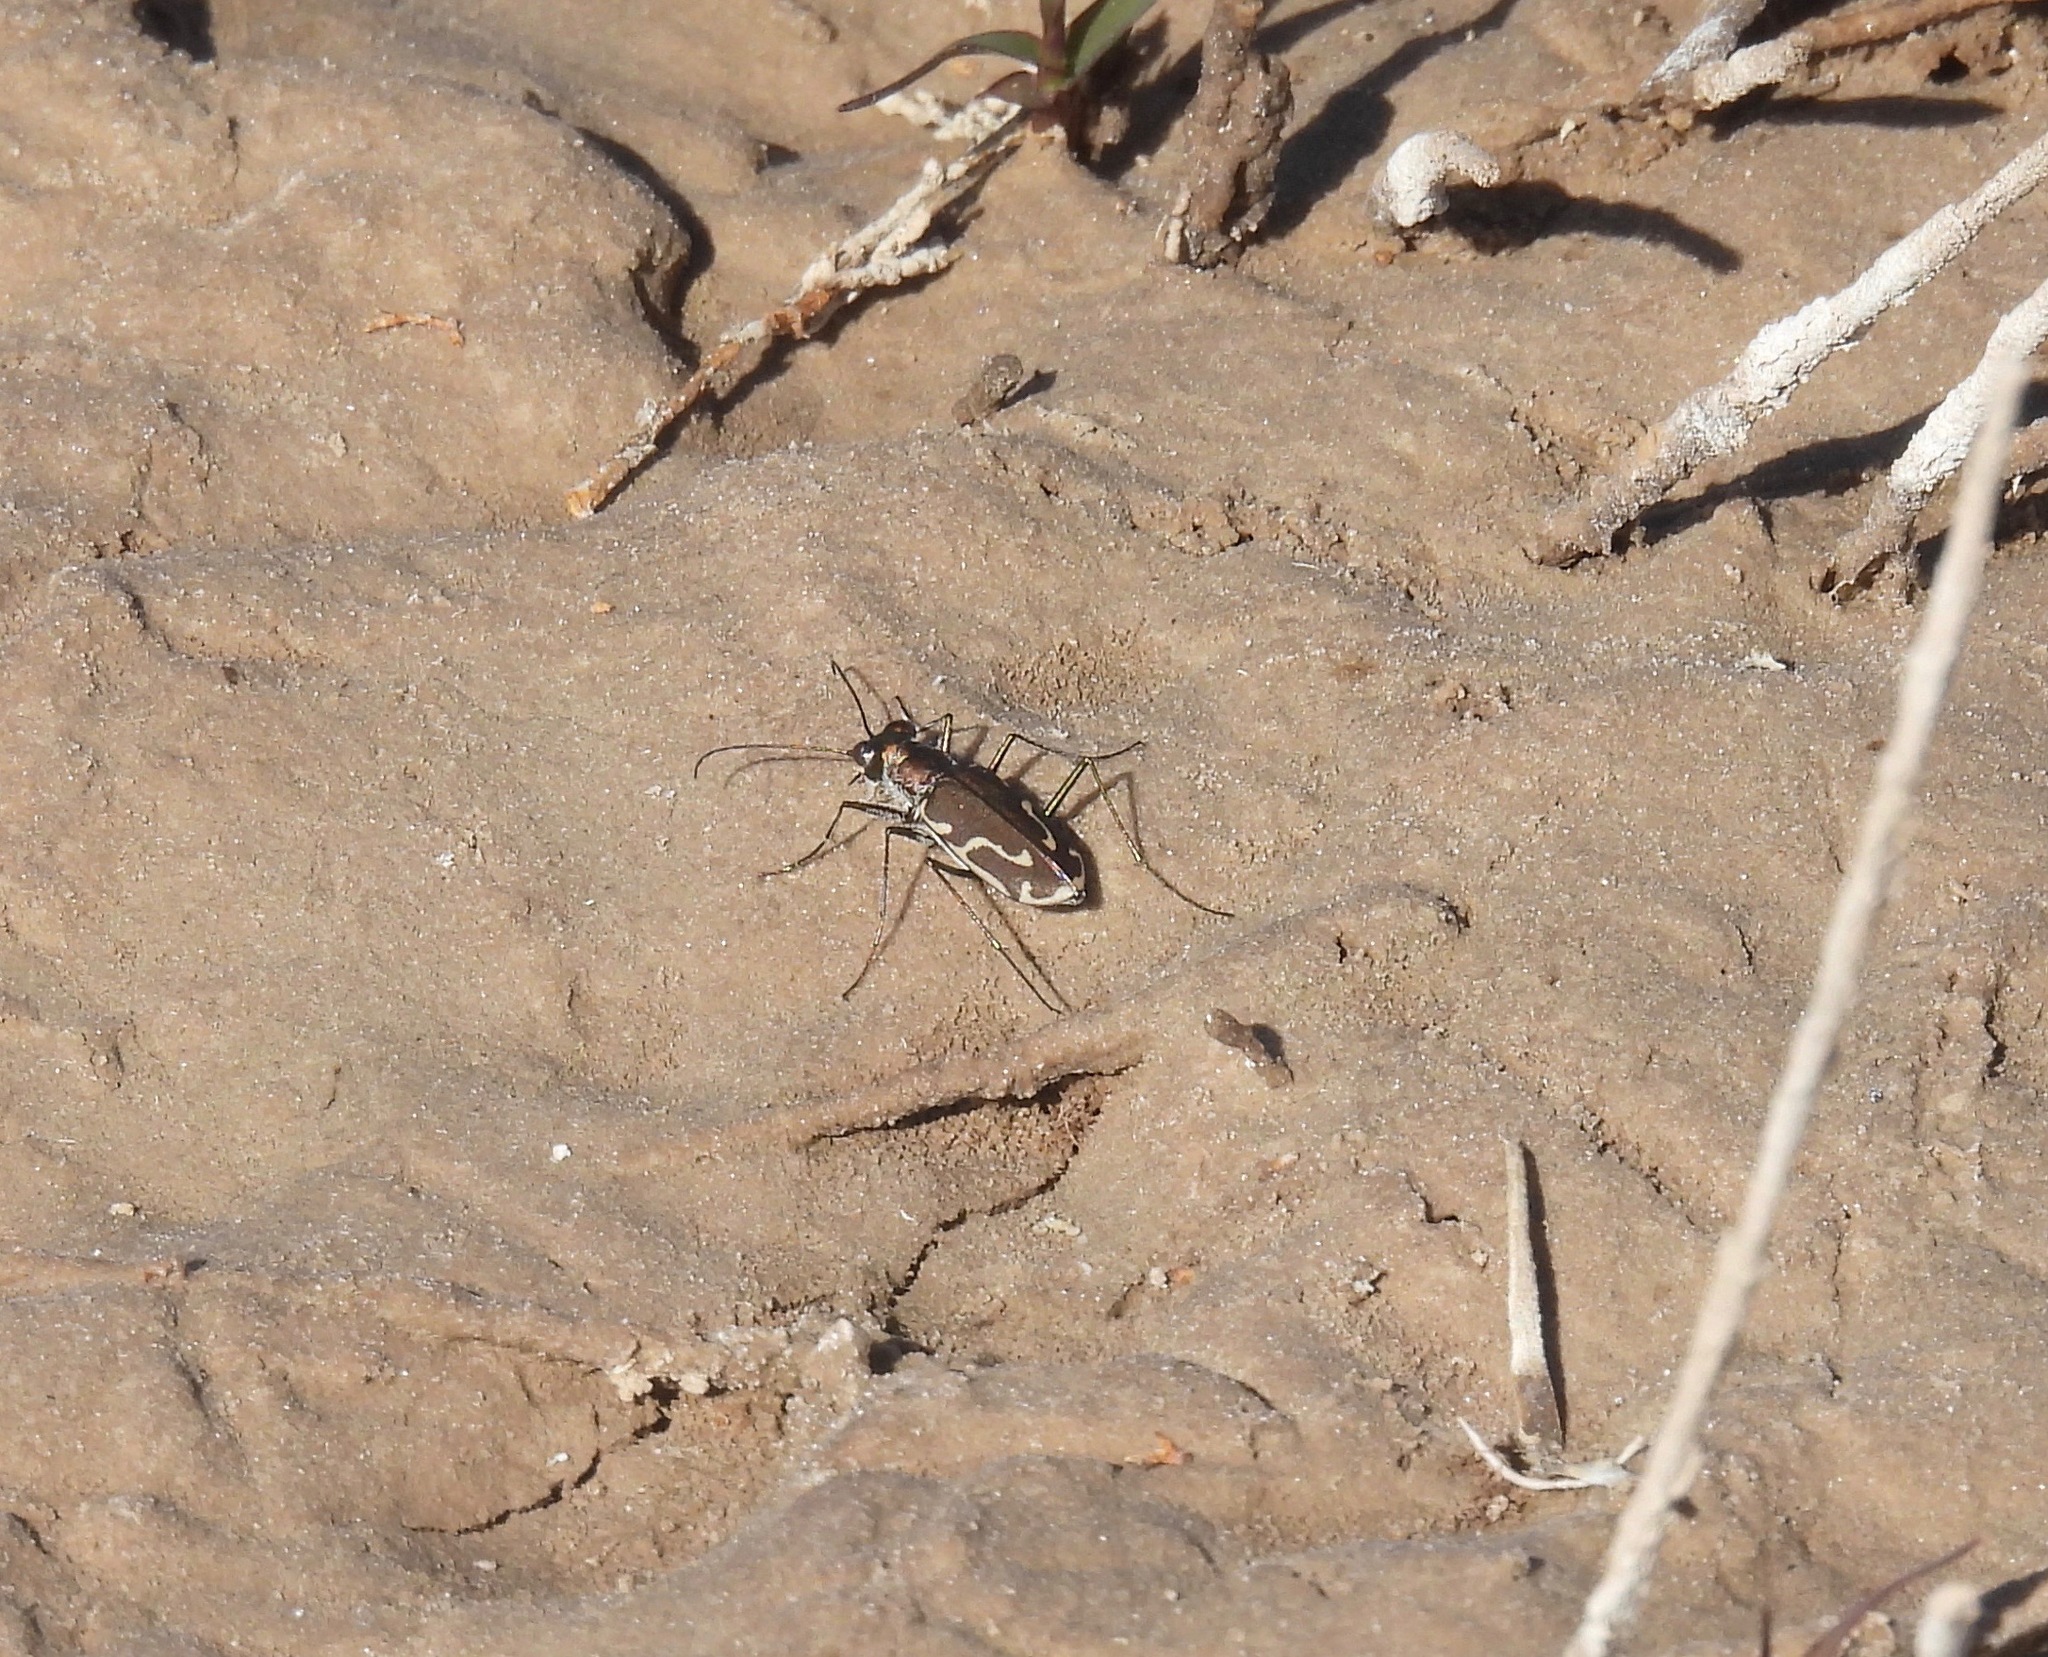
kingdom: Animalia
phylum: Arthropoda
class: Insecta
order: Coleoptera
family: Carabidae
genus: Cicindela
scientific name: Cicindela tenuisignata
